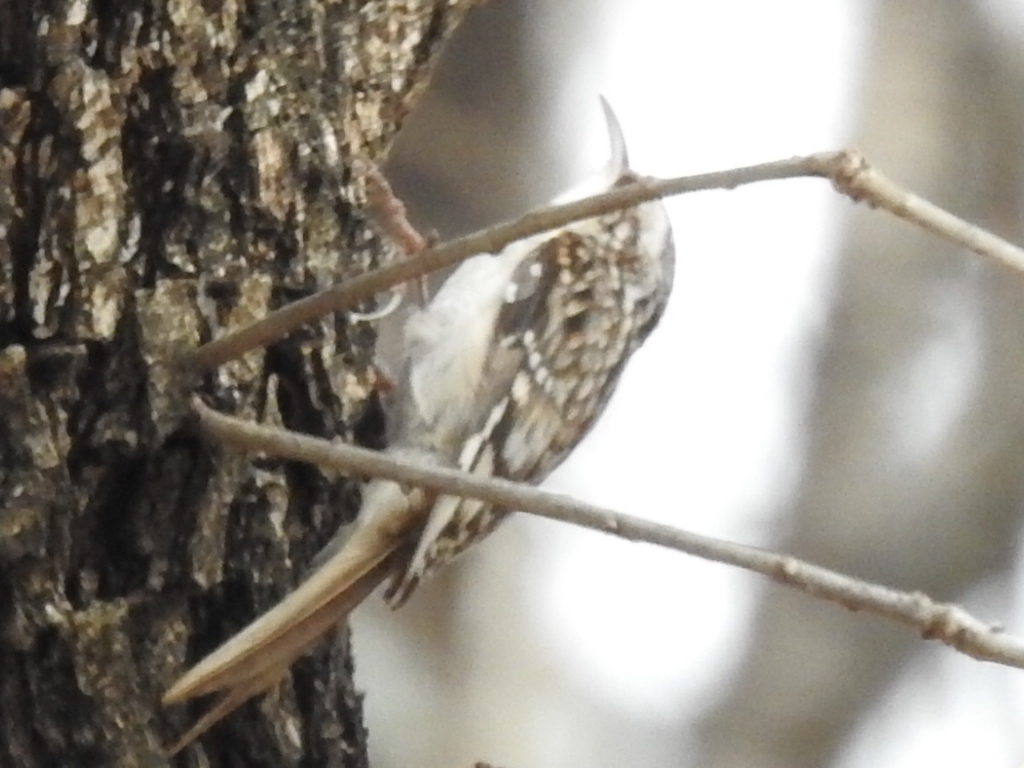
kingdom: Animalia
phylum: Chordata
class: Aves
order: Passeriformes
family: Certhiidae
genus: Certhia
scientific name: Certhia americana
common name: Brown creeper
